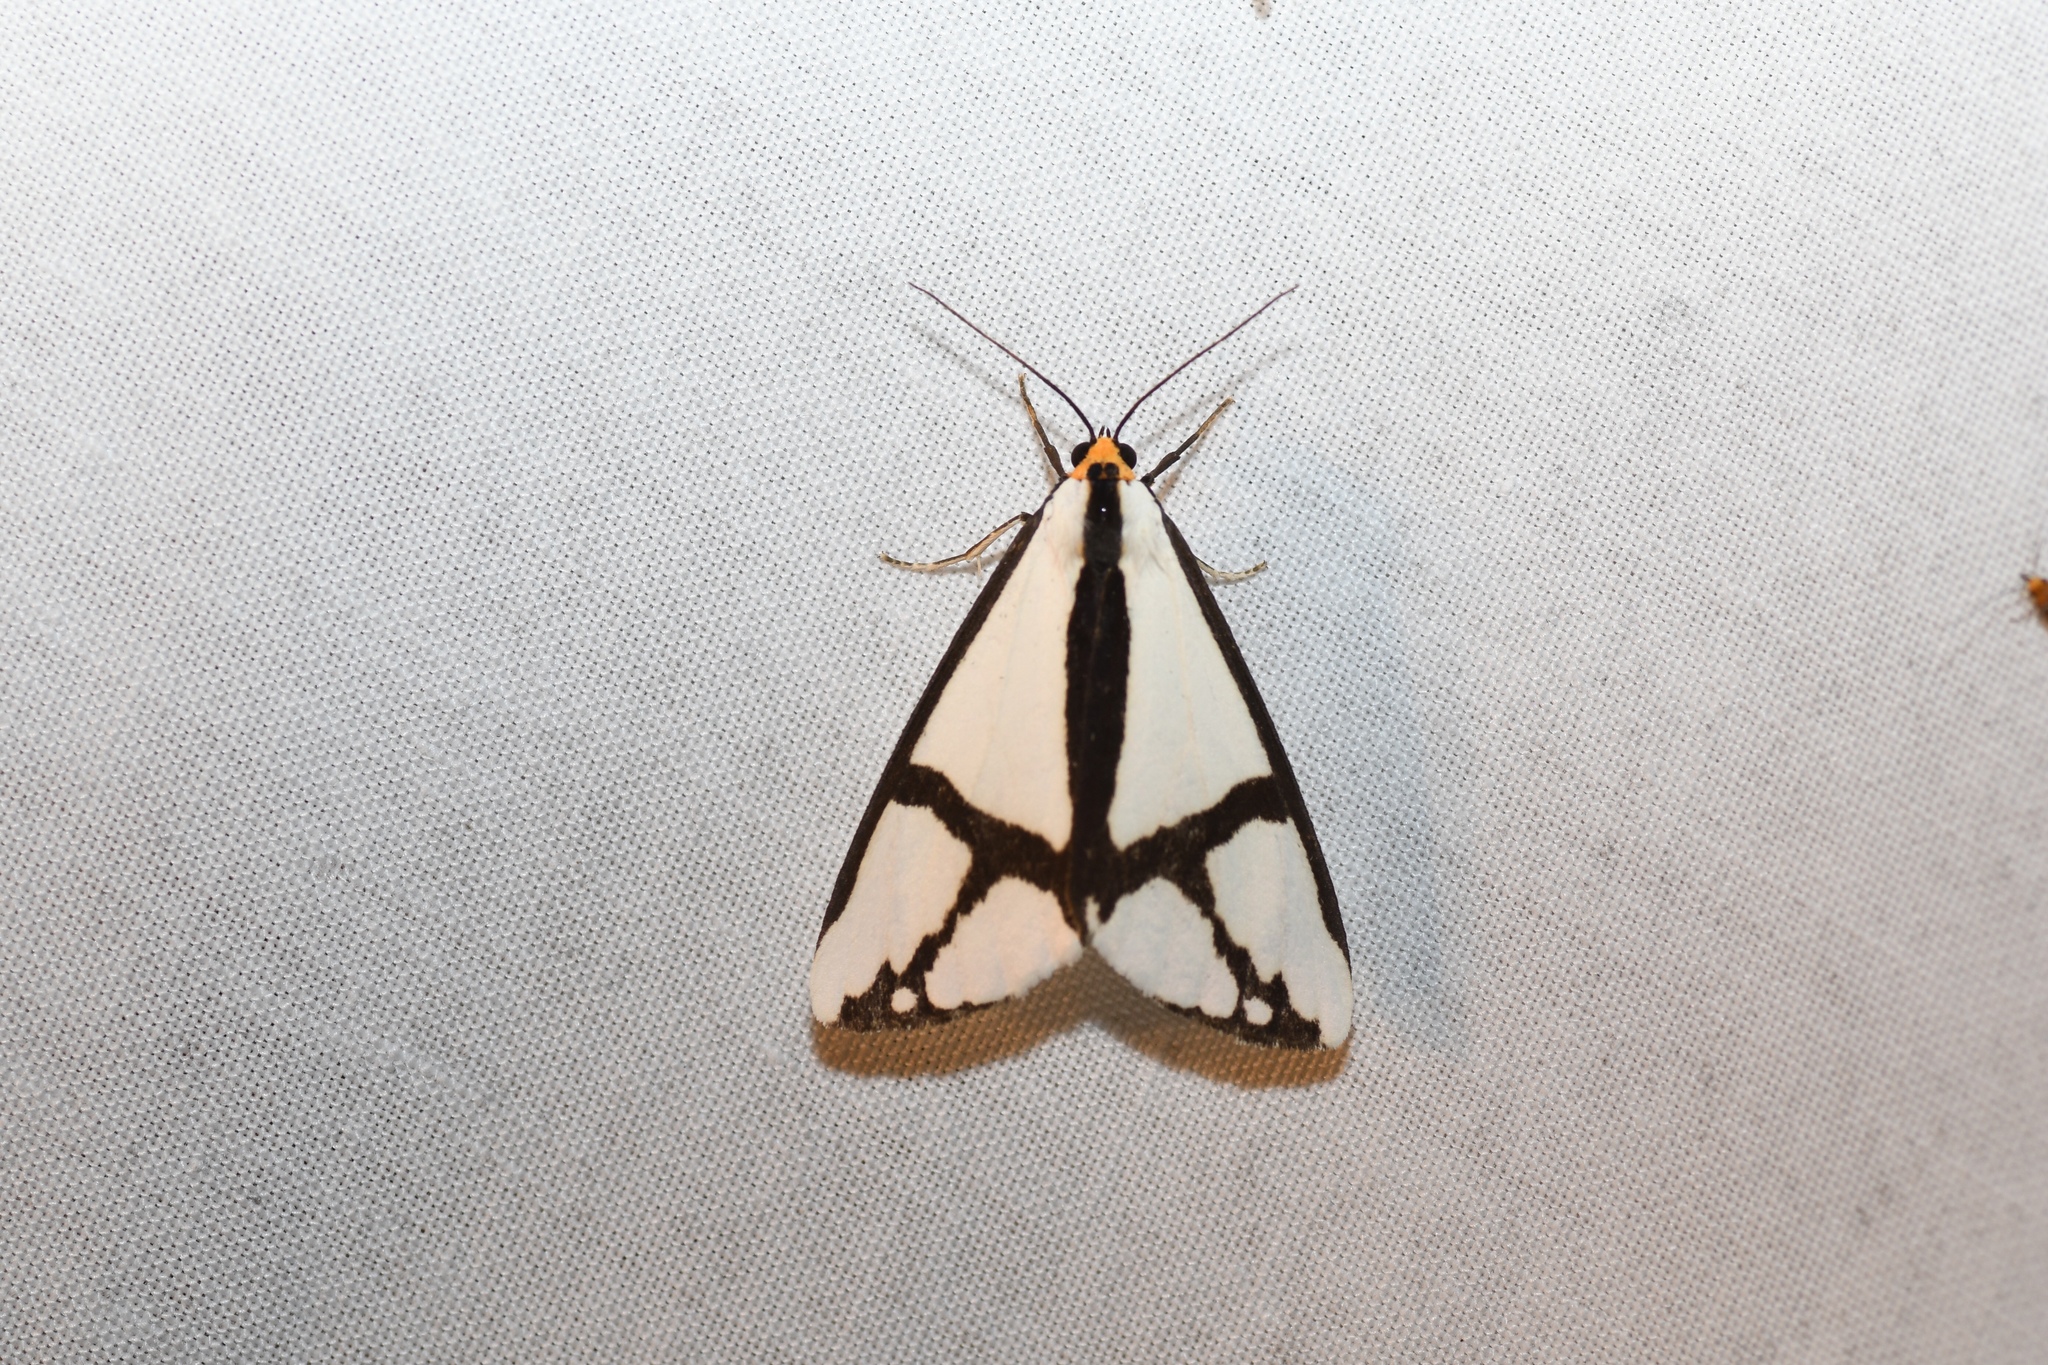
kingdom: Animalia
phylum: Arthropoda
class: Insecta
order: Lepidoptera
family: Erebidae
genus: Haploa
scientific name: Haploa contigua
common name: Neighbor moth
